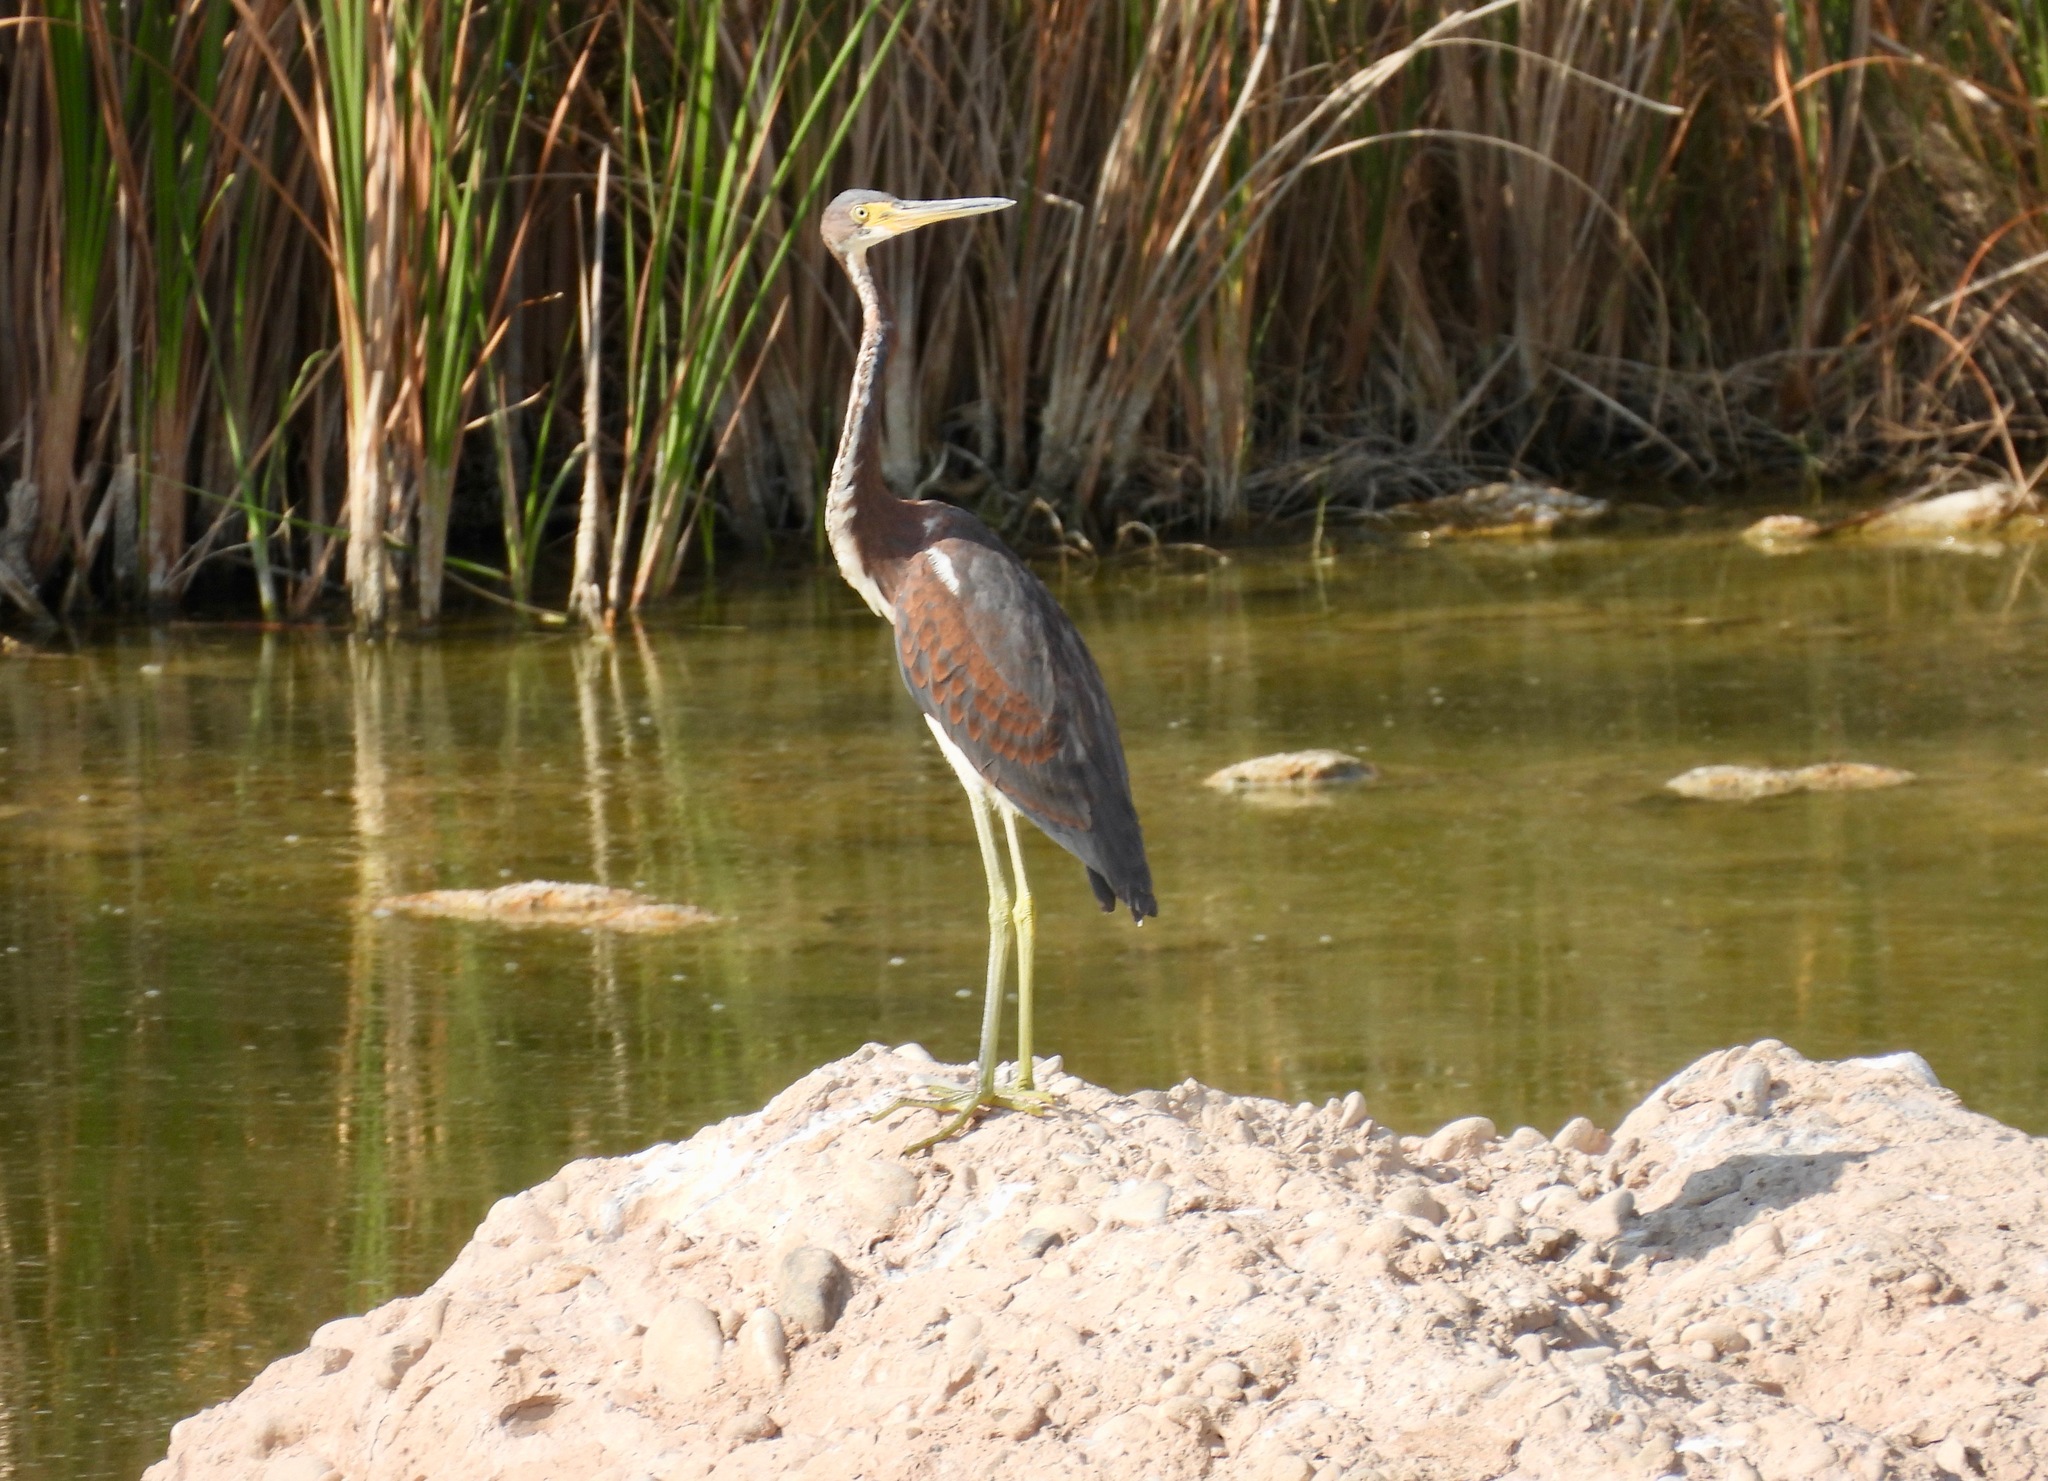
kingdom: Animalia
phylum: Chordata
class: Aves
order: Pelecaniformes
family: Ardeidae
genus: Egretta
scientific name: Egretta tricolor
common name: Tricolored heron
